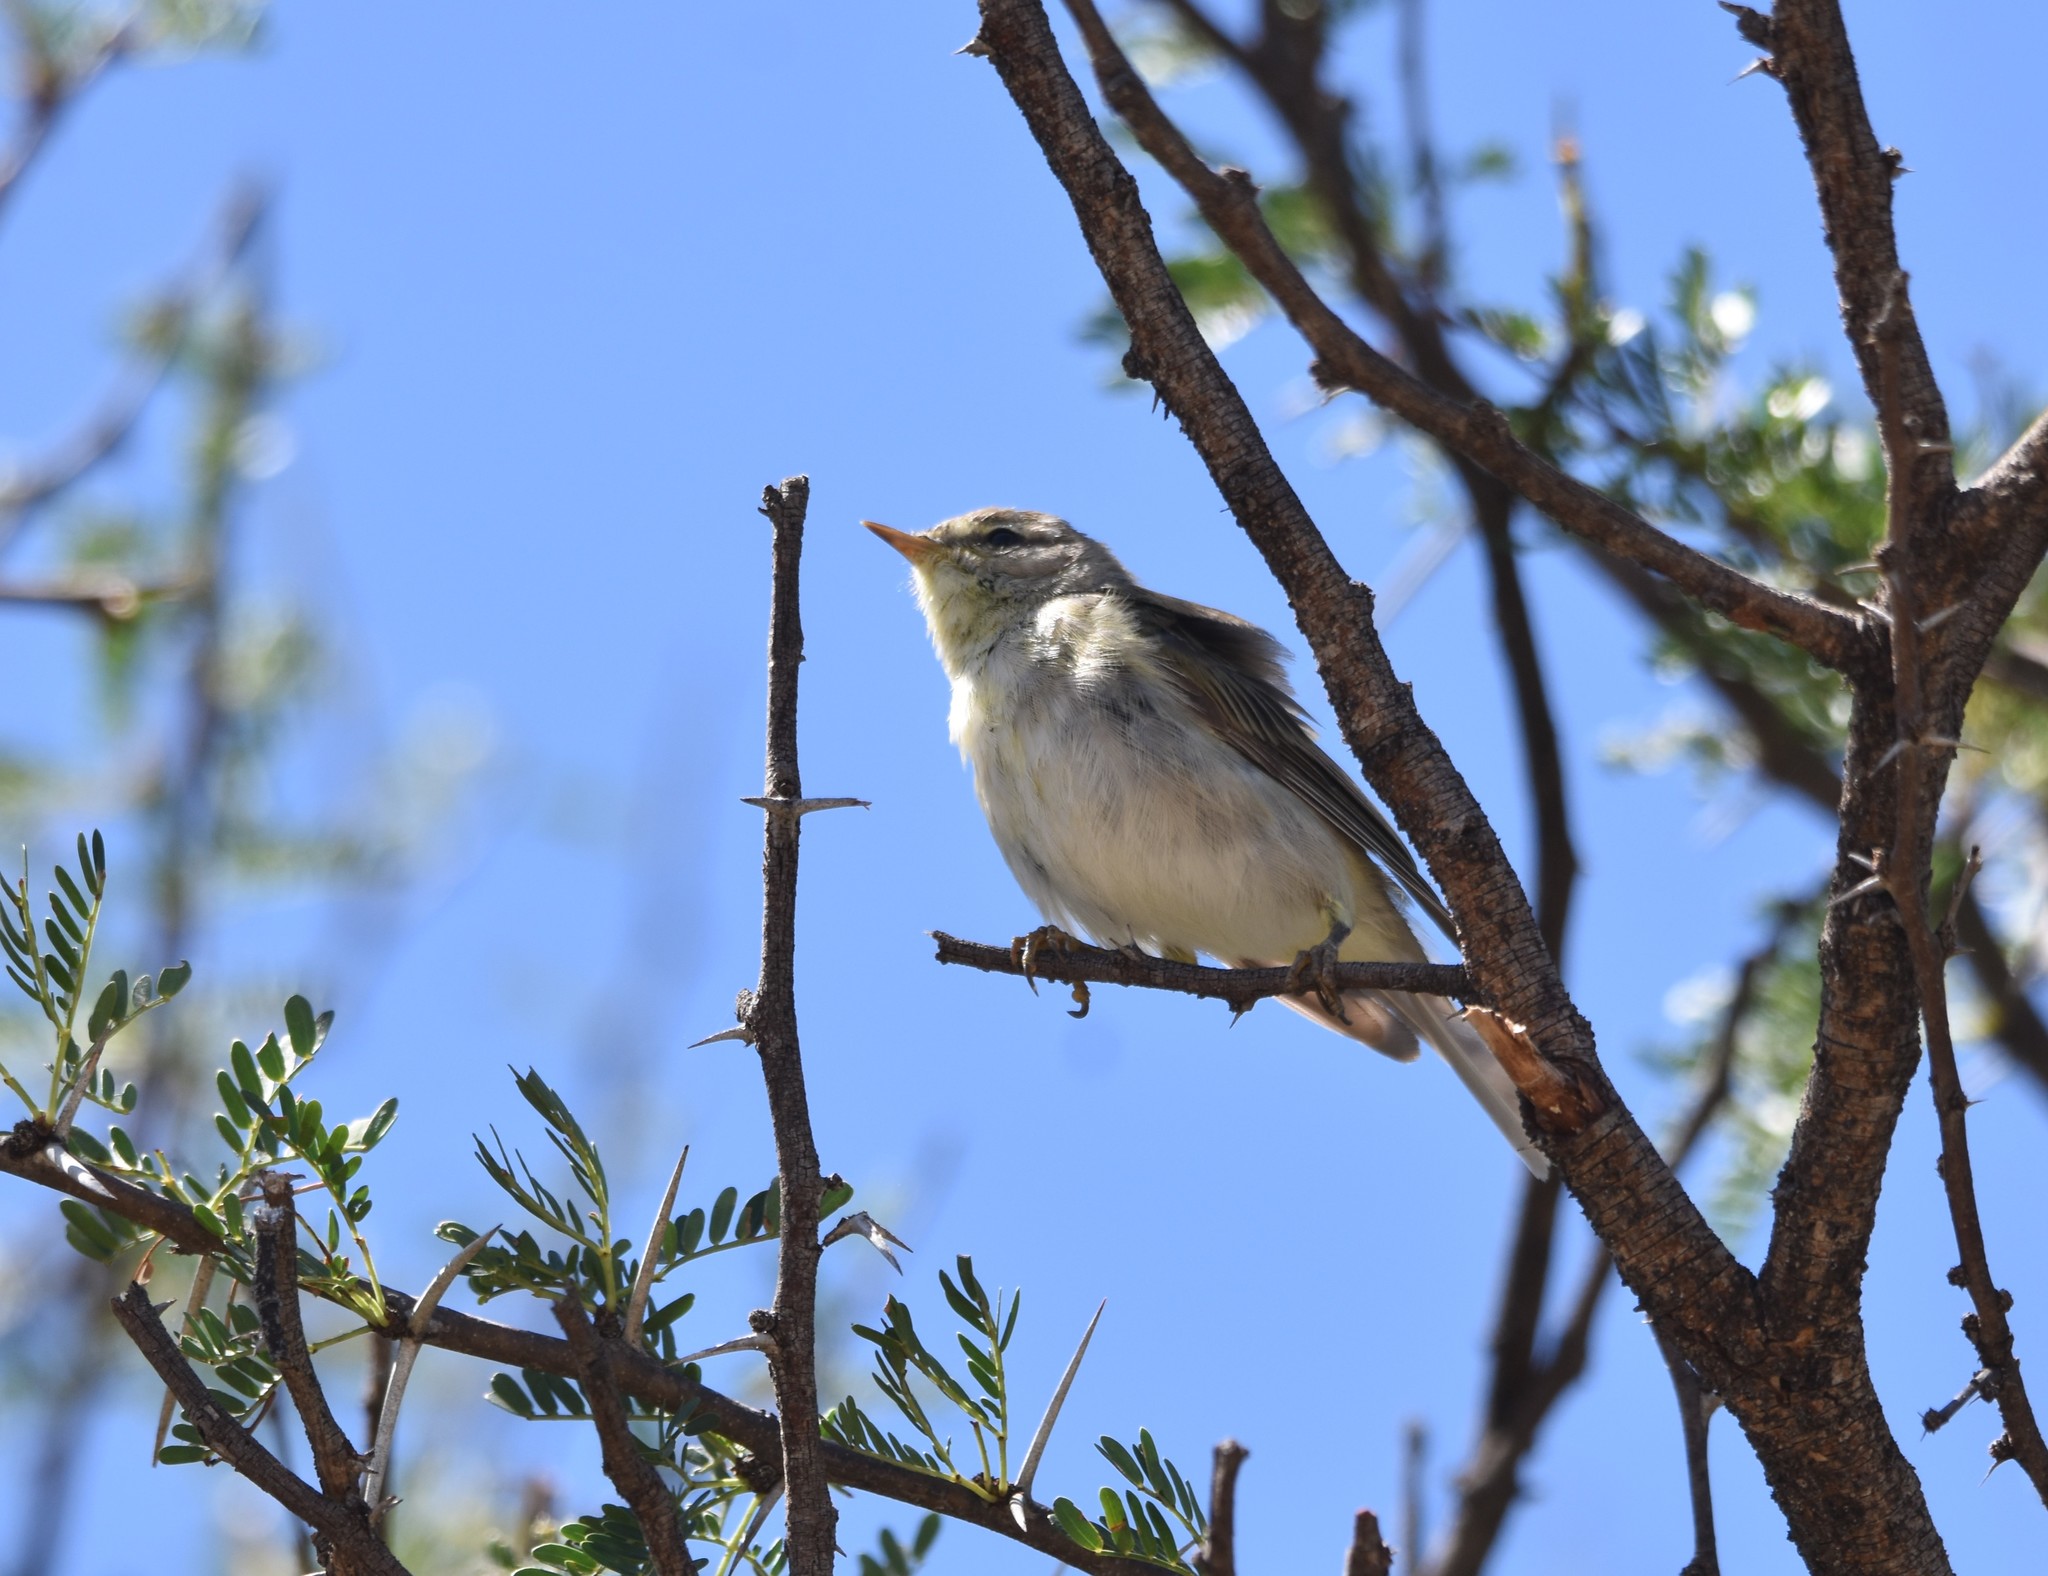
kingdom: Animalia
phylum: Chordata
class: Aves
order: Passeriformes
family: Phylloscopidae
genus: Phylloscopus
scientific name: Phylloscopus trochilus
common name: Willow warbler
